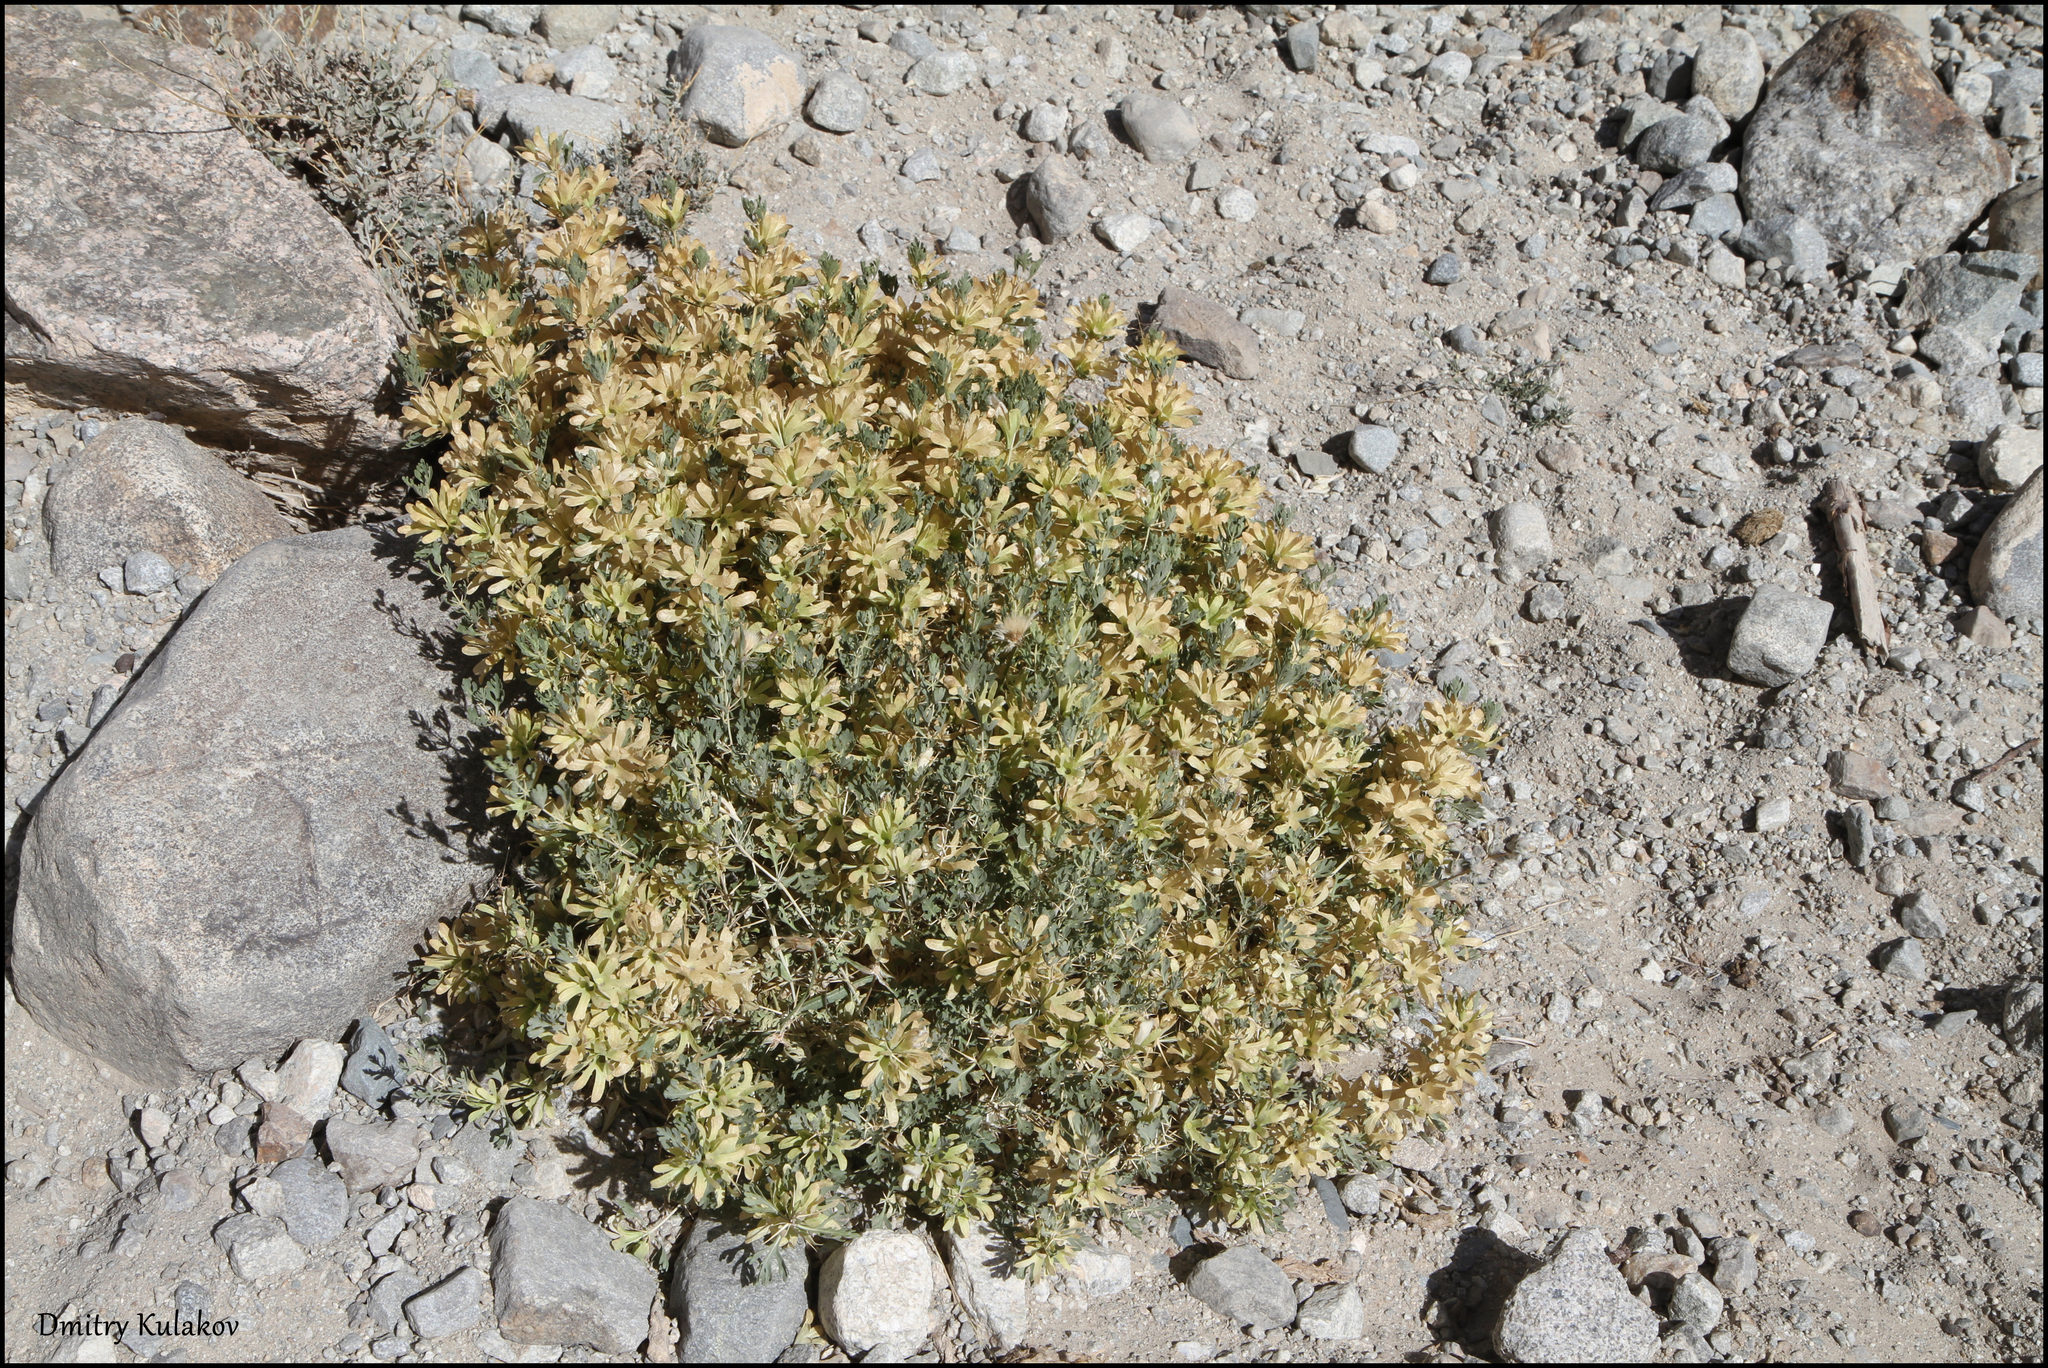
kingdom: Plantae
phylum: Tracheophyta
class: Magnoliopsida
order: Lamiales
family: Lamiaceae
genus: Lagochilus
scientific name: Lagochilus seravschanicus
